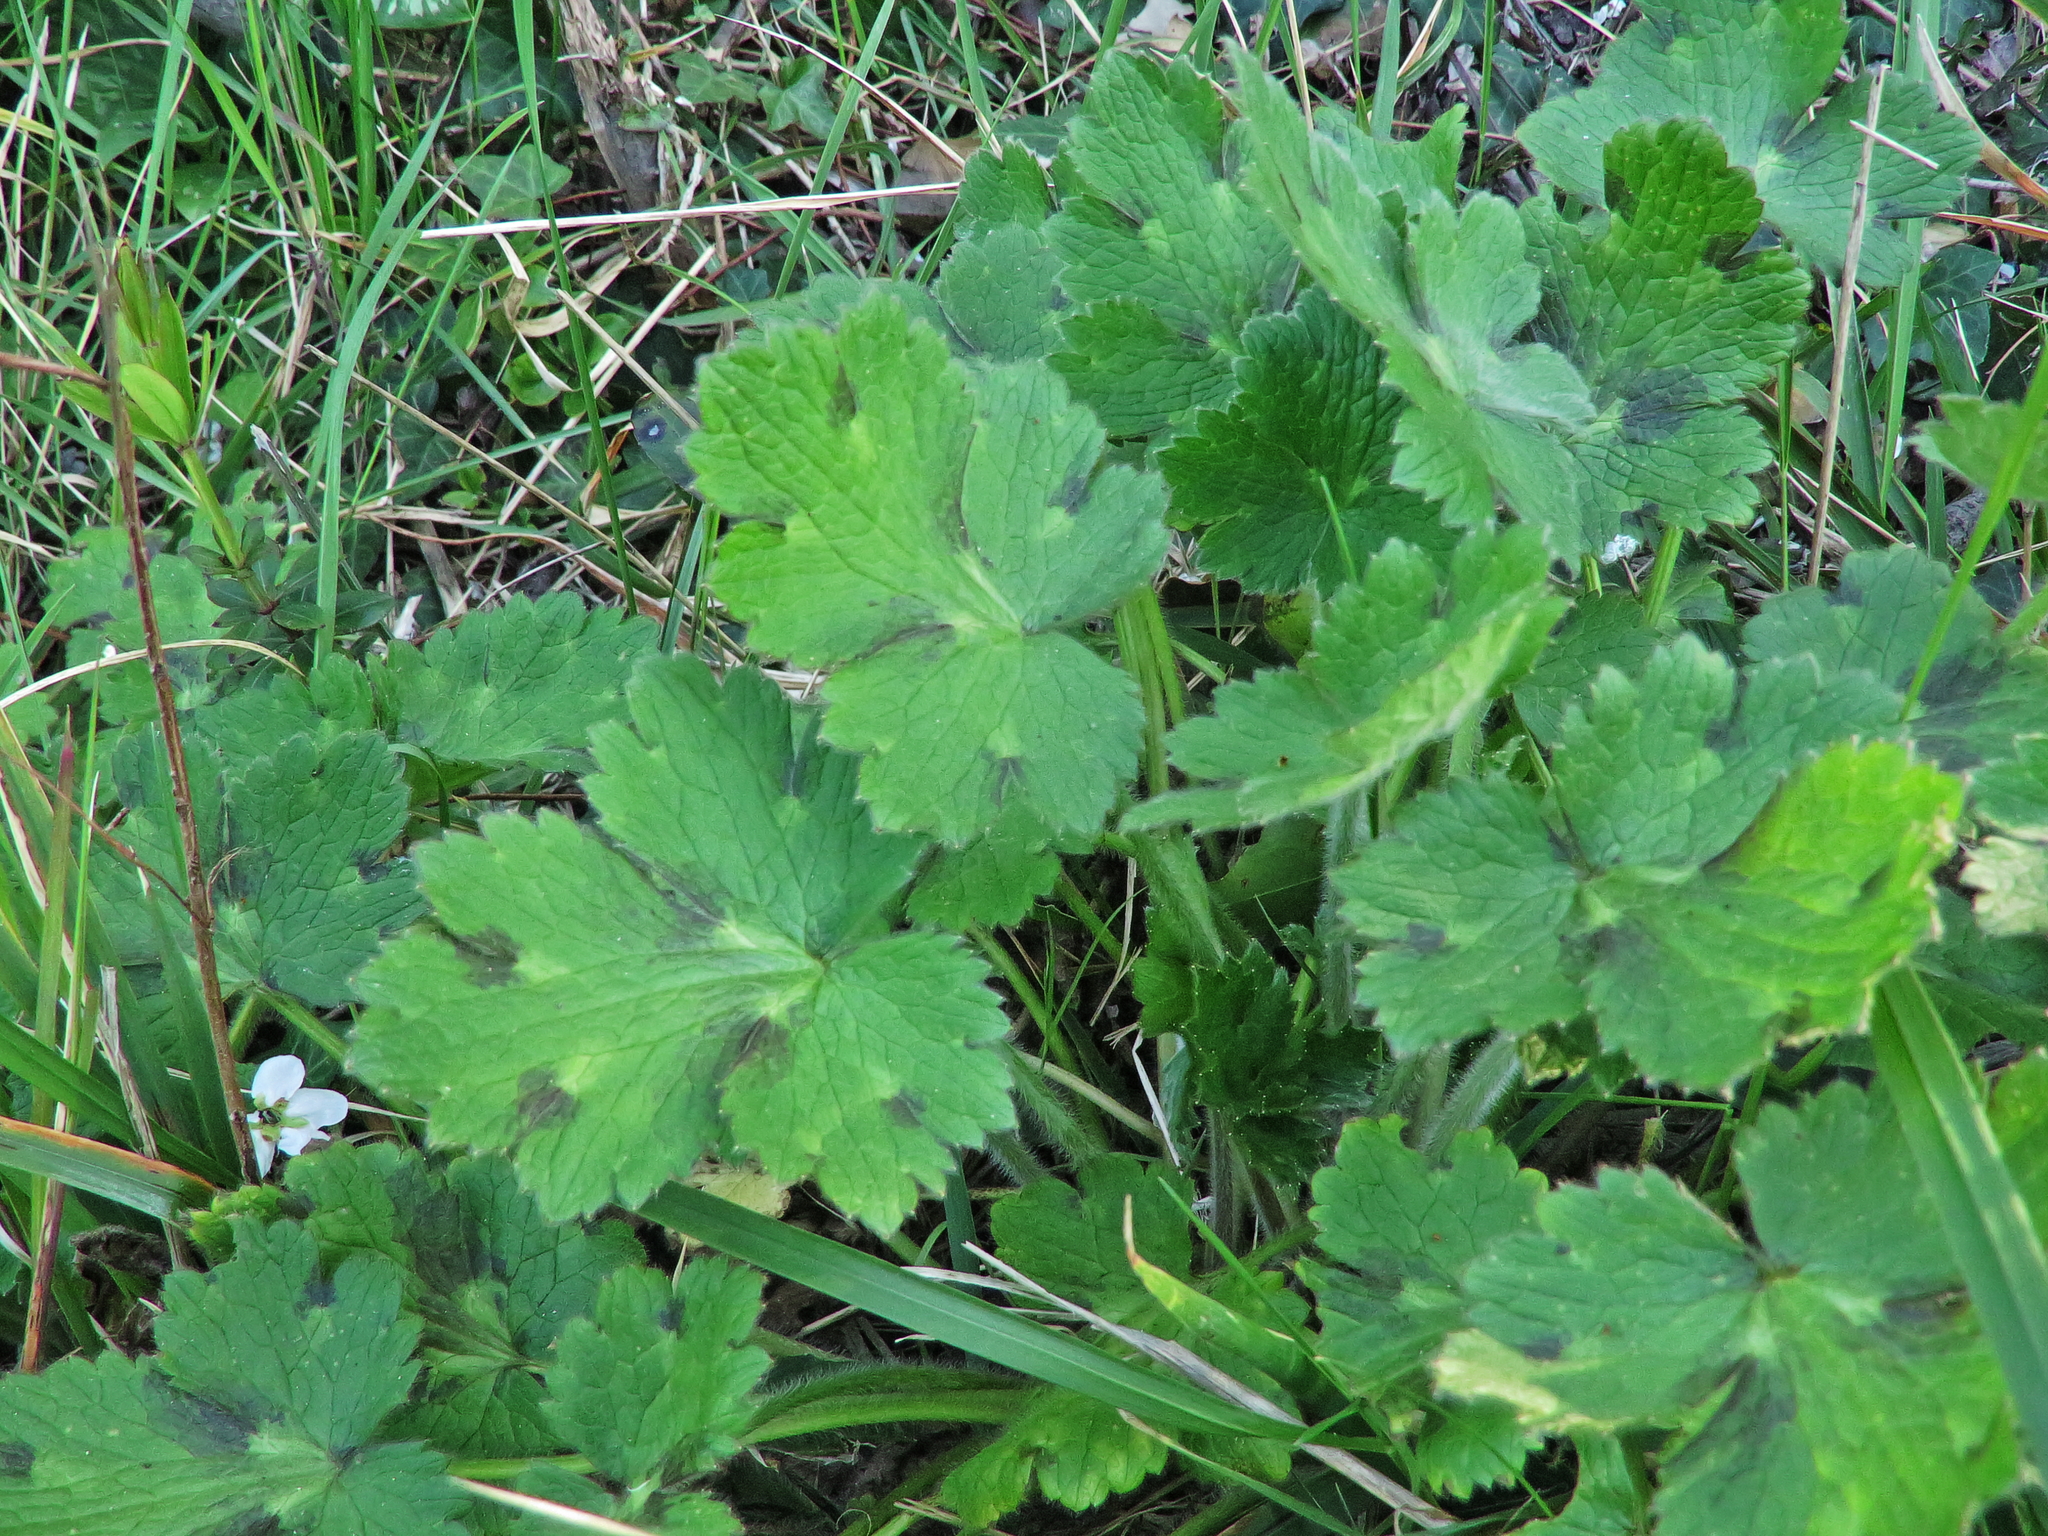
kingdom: Plantae
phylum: Tracheophyta
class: Magnoliopsida
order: Ranunculales
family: Ranunculaceae
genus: Ranunculus
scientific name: Ranunculus lanuginosus
